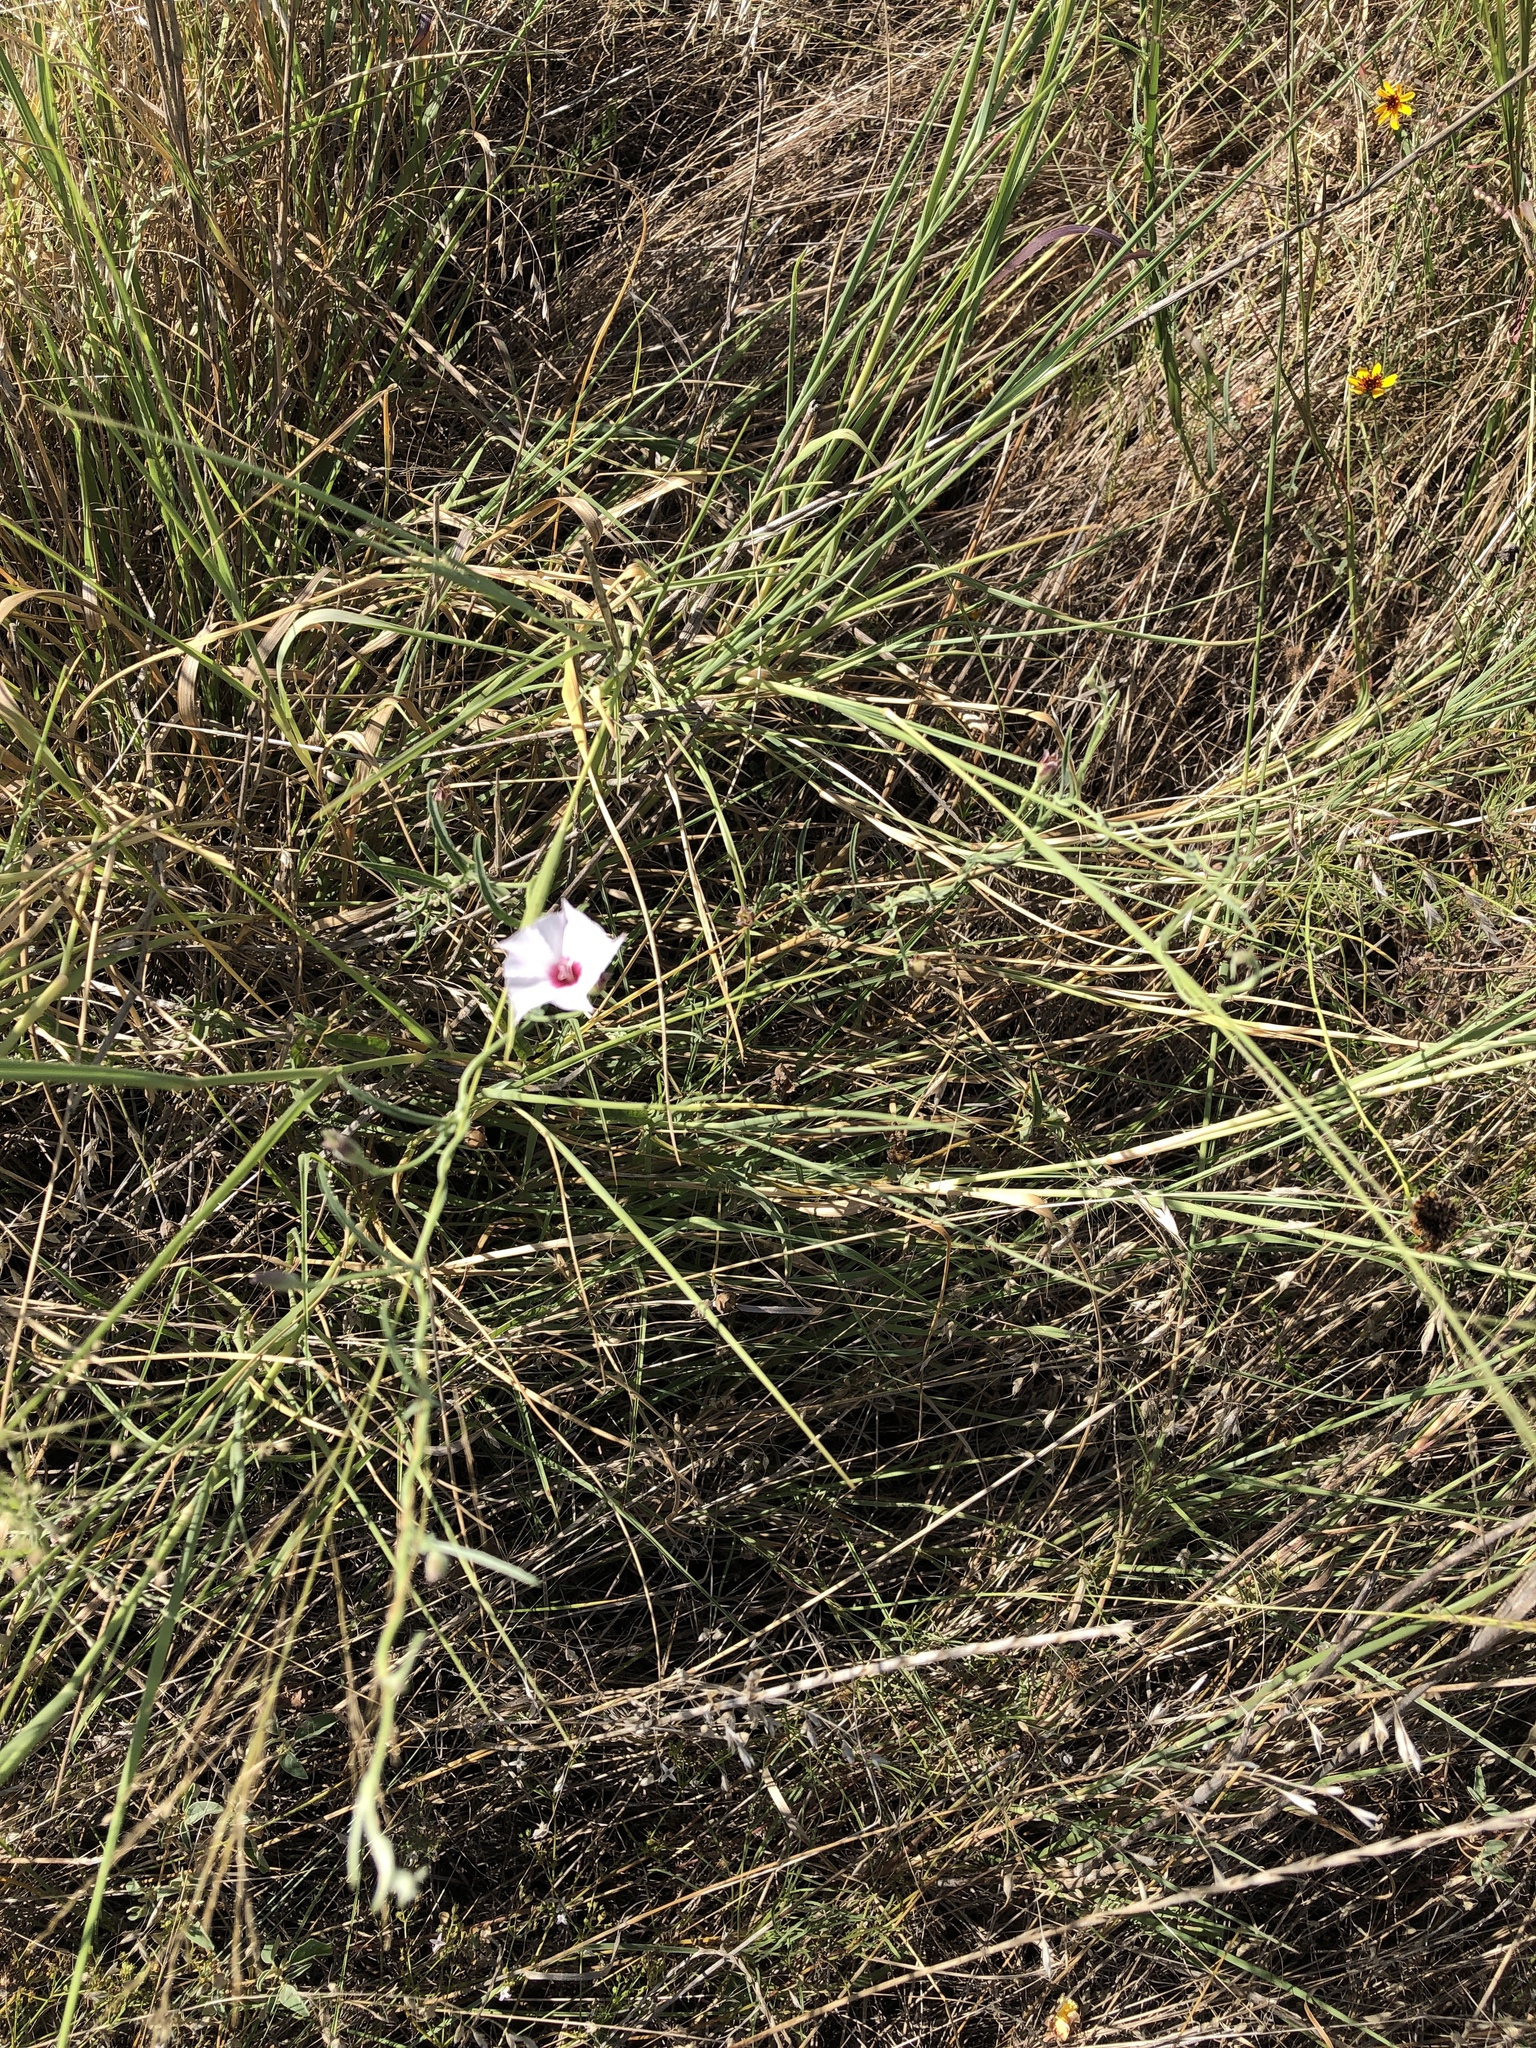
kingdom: Plantae
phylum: Tracheophyta
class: Magnoliopsida
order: Solanales
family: Convolvulaceae
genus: Convolvulus
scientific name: Convolvulus equitans
